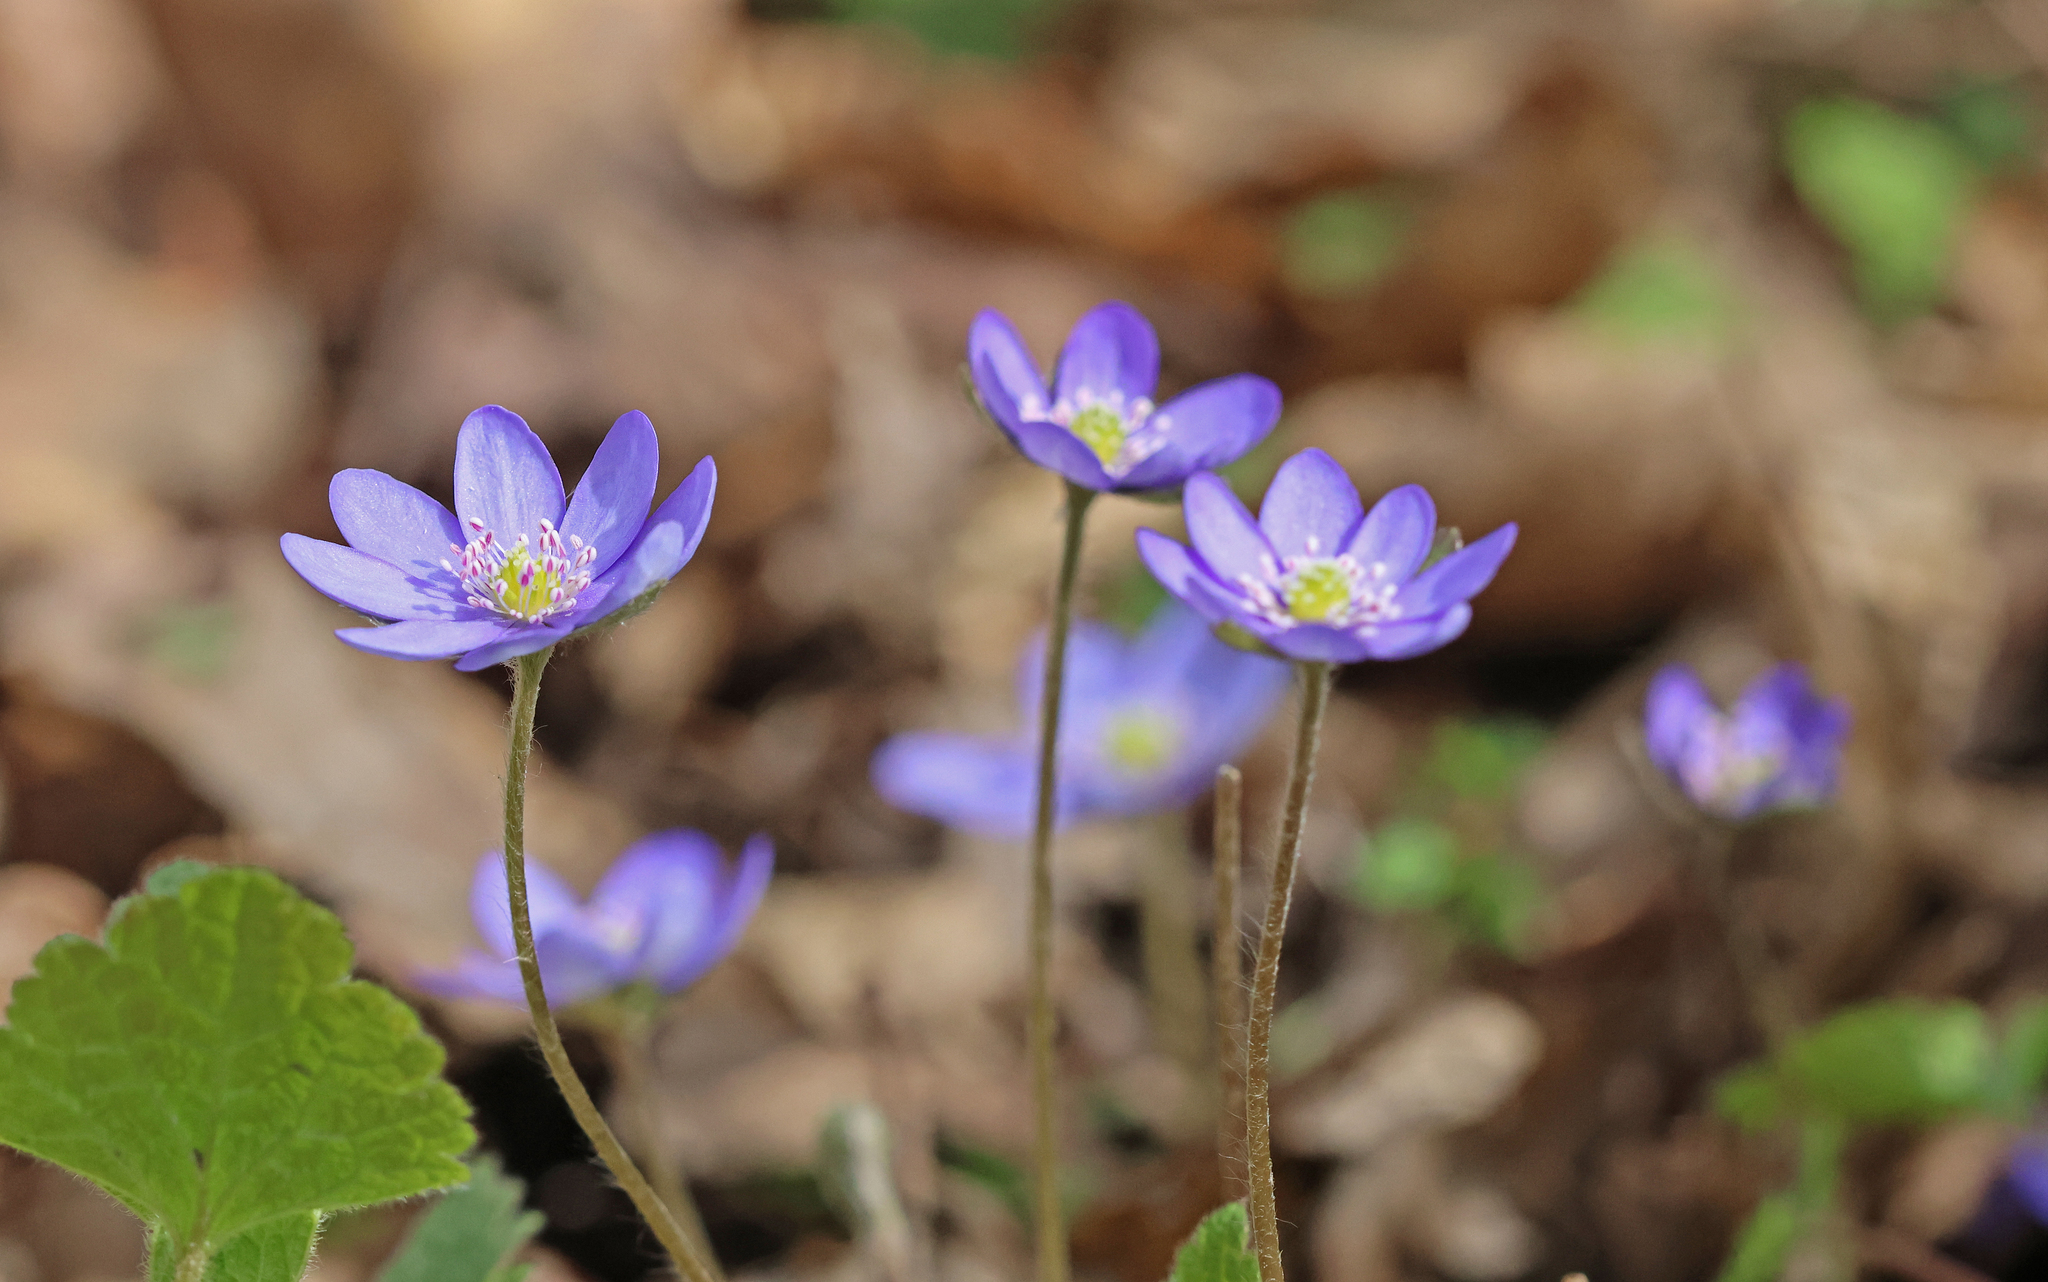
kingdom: Plantae
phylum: Tracheophyta
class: Magnoliopsida
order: Ranunculales
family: Ranunculaceae
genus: Hepatica
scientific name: Hepatica nobilis
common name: Liverleaf
